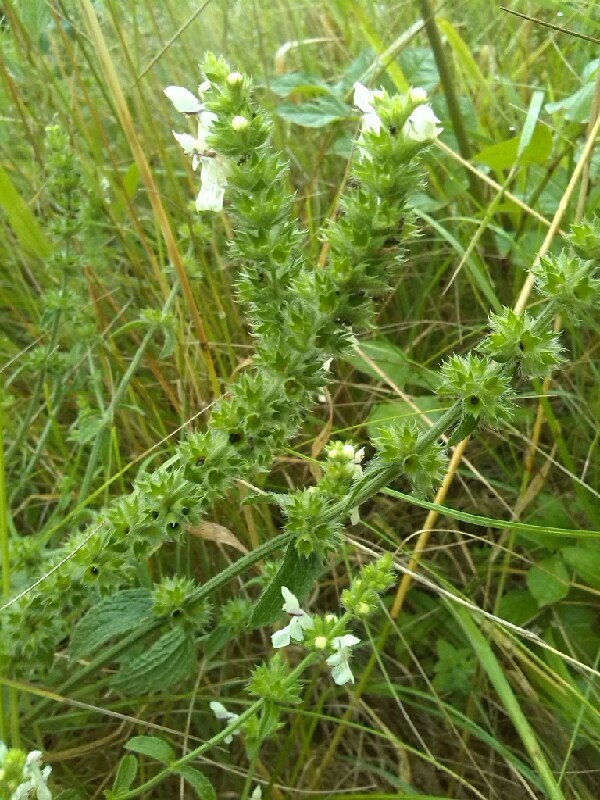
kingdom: Plantae
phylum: Tracheophyta
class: Magnoliopsida
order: Lamiales
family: Lamiaceae
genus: Stachys
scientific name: Stachys recta
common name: Perennial yellow-woundwort
